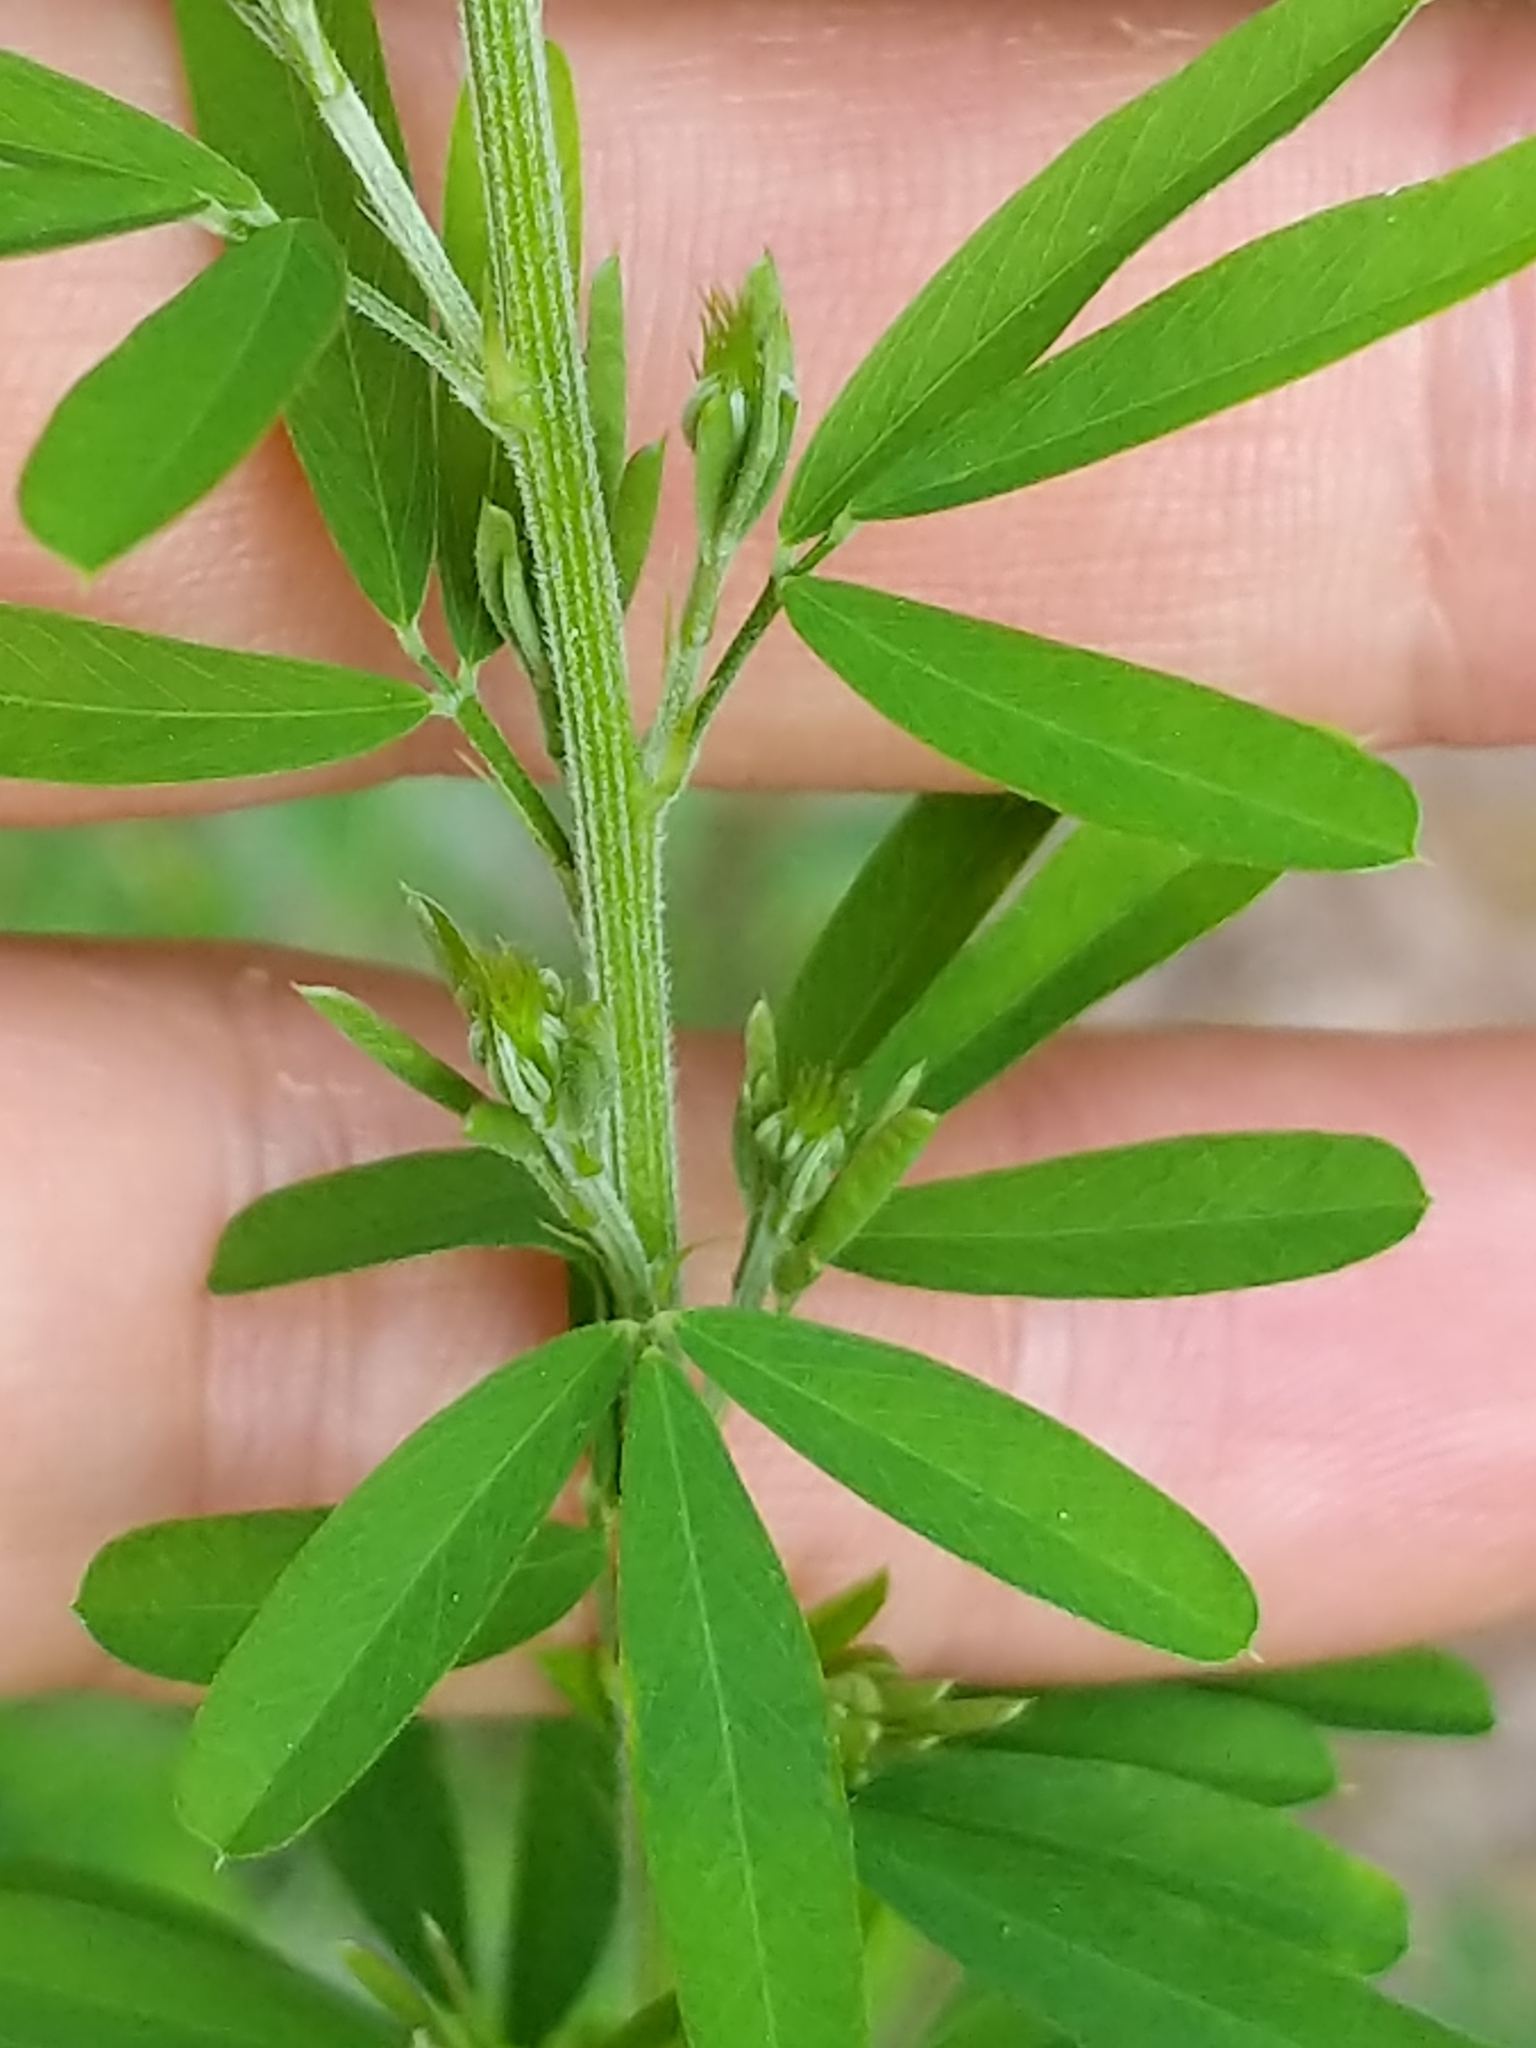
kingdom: Plantae
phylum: Tracheophyta
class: Magnoliopsida
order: Fabales
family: Fabaceae
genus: Lespedeza
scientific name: Lespedeza cuneata
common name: Chinese bush-clover
